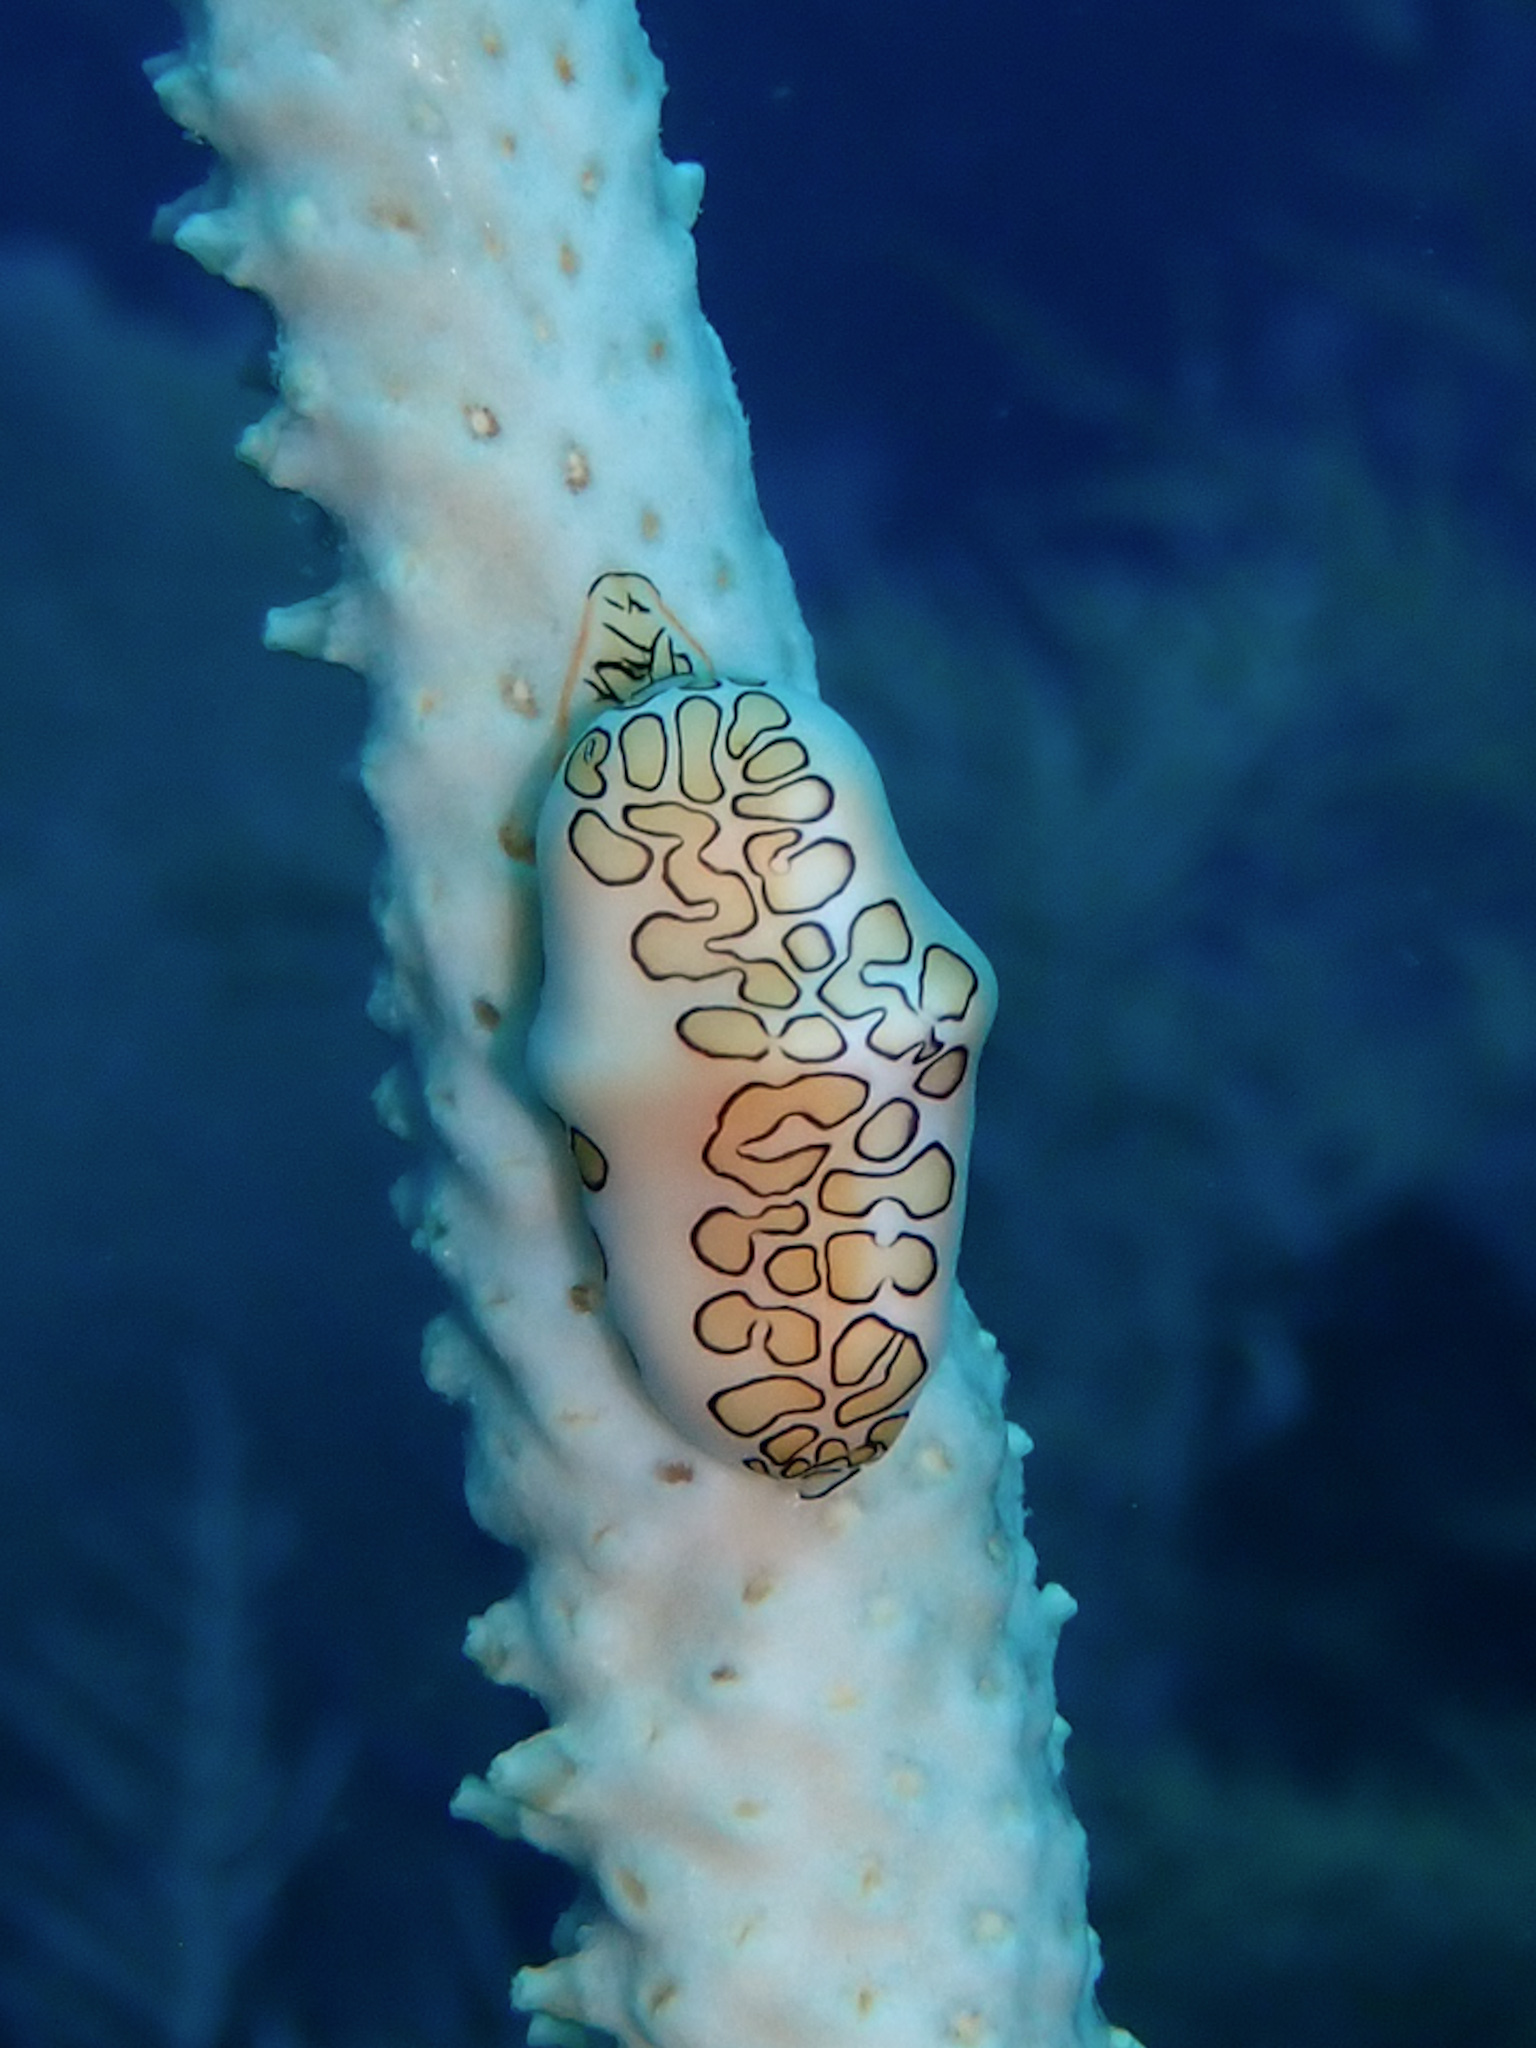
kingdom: Animalia
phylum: Mollusca
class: Gastropoda
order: Littorinimorpha
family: Ovulidae
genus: Cyphoma
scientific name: Cyphoma gibbosum
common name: Flamingo tongue
